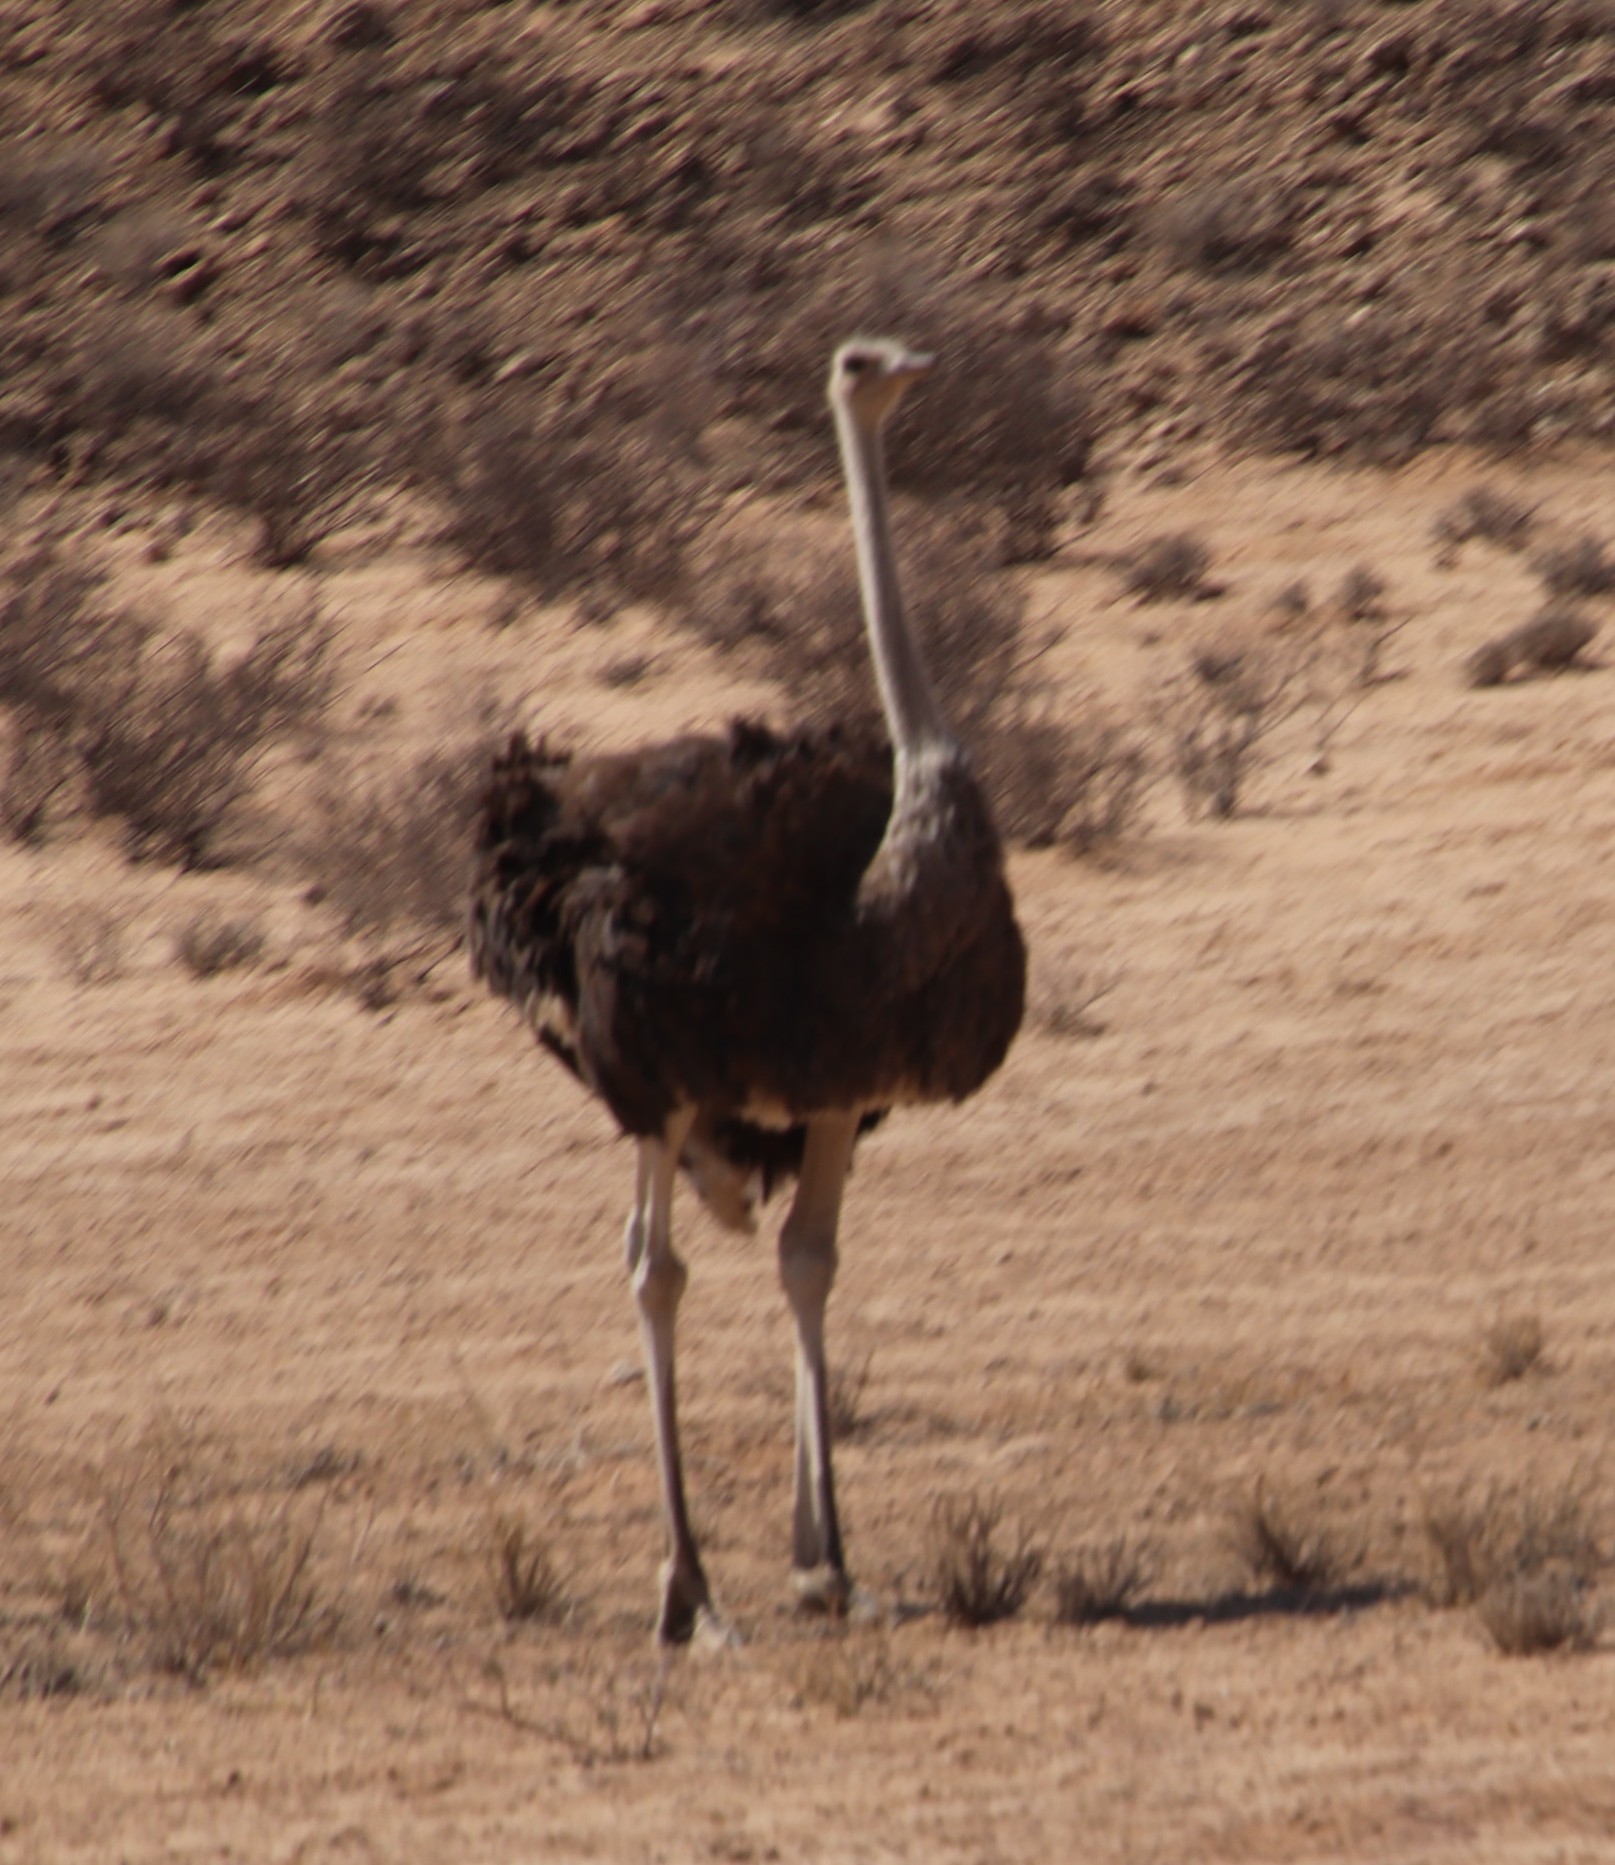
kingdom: Animalia
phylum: Chordata
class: Aves
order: Struthioniformes
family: Struthionidae
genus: Struthio
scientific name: Struthio camelus
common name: Common ostrich
